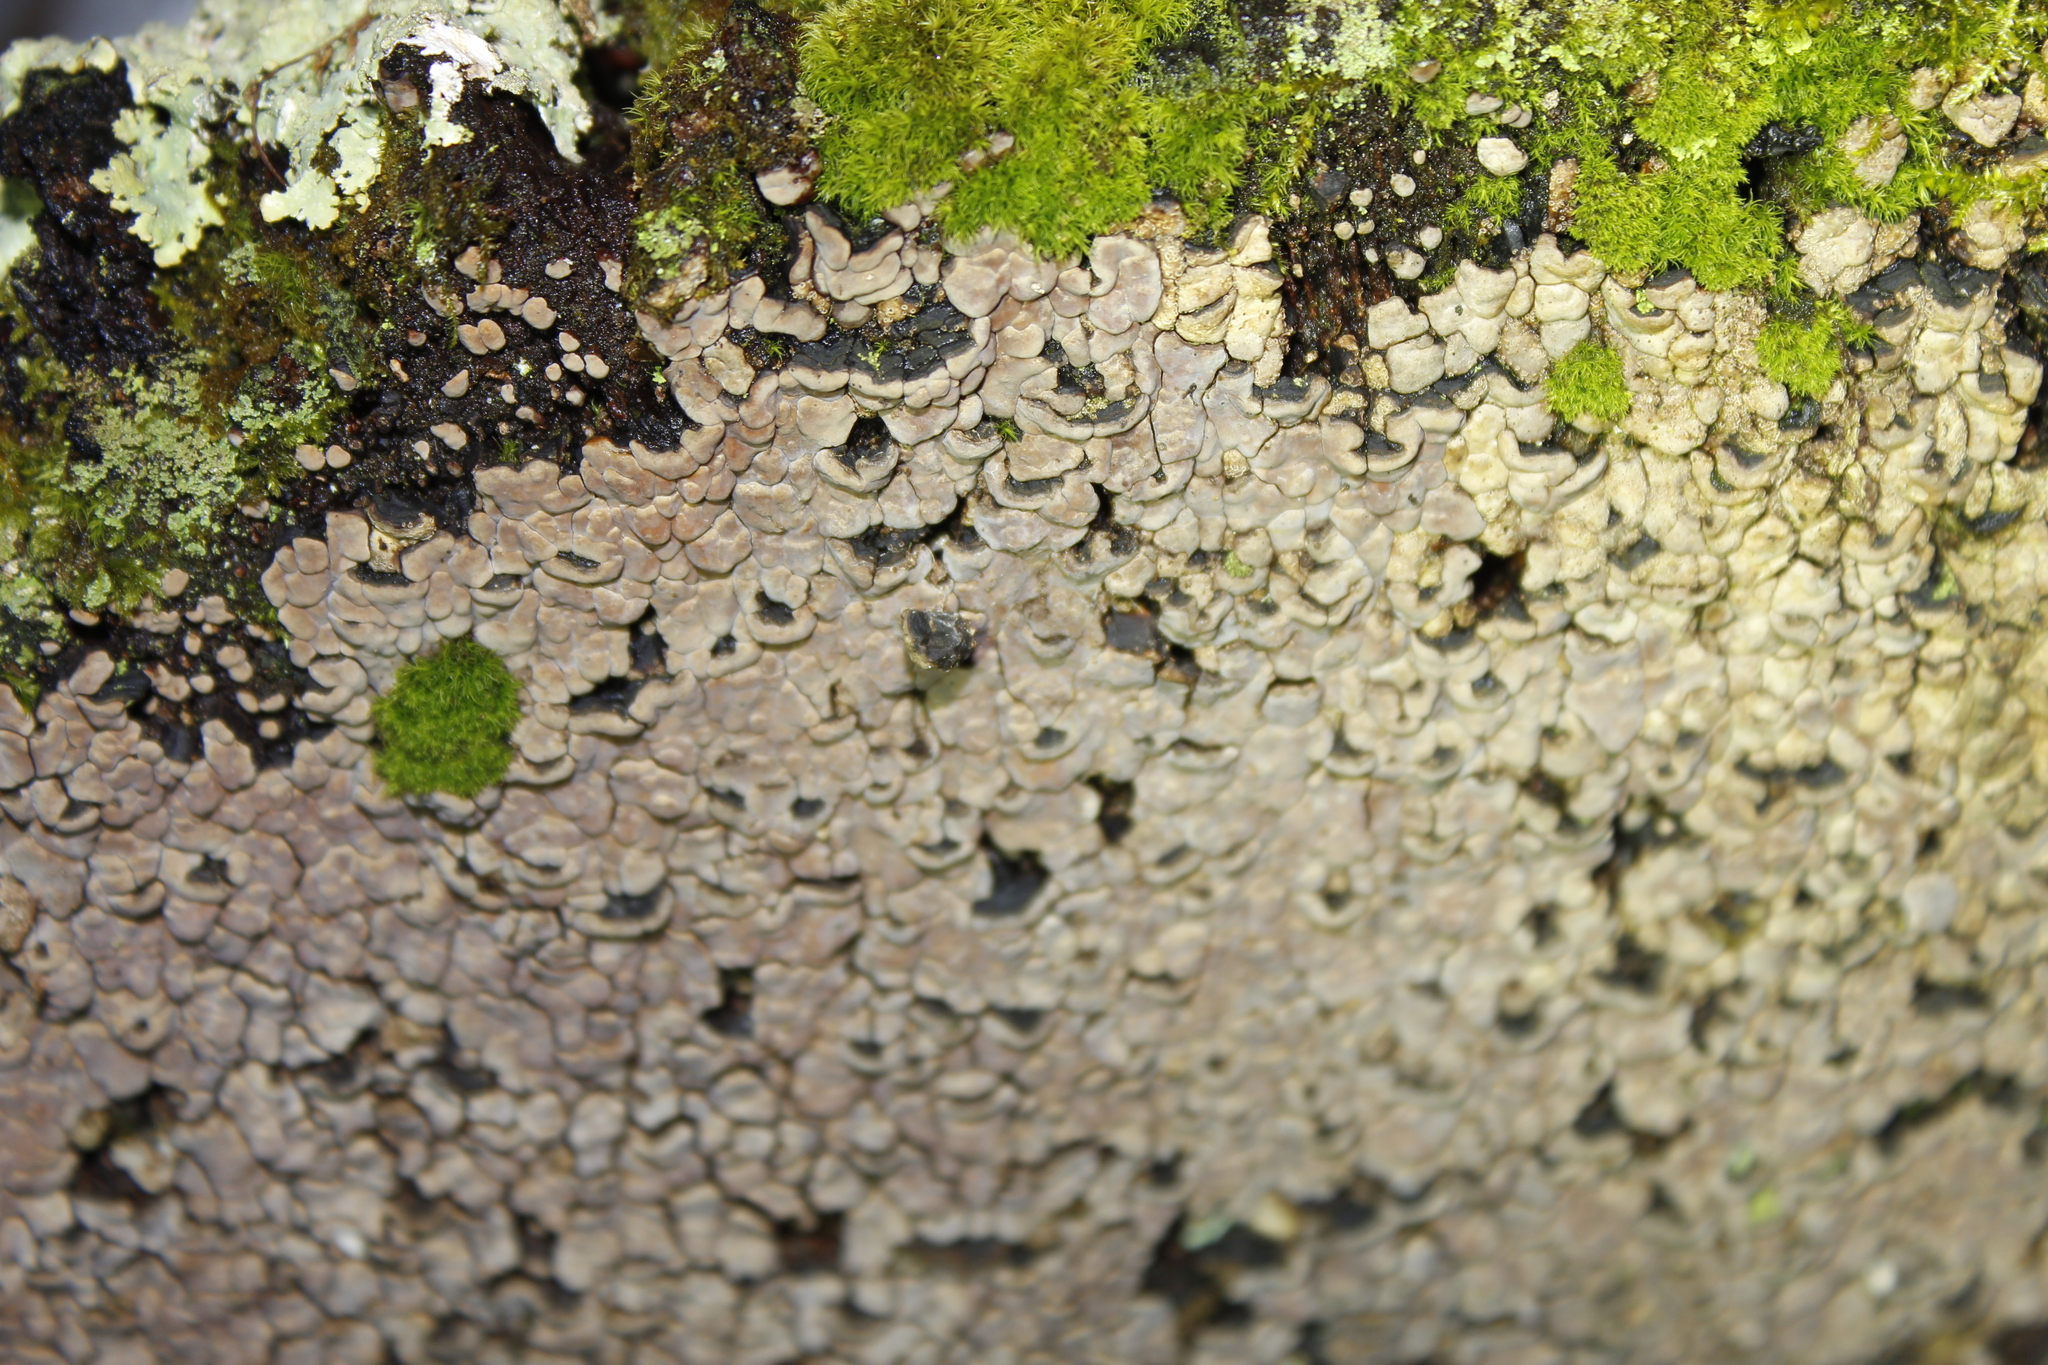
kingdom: Fungi
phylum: Basidiomycota
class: Agaricomycetes
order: Russulales
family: Stereaceae
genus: Xylobolus
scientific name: Xylobolus frustulatus
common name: Ceramic parchment
